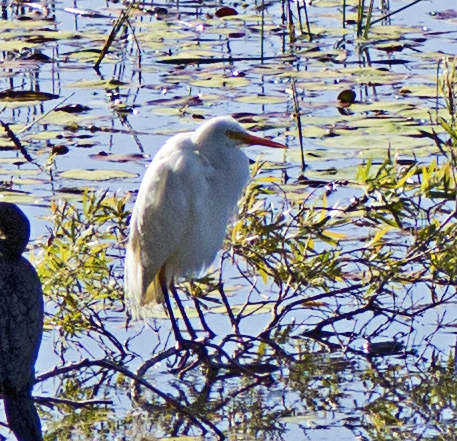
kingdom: Animalia
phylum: Chordata
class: Aves
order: Pelecaniformes
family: Ardeidae
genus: Egretta
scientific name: Egretta intermedia
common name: Intermediate egret
